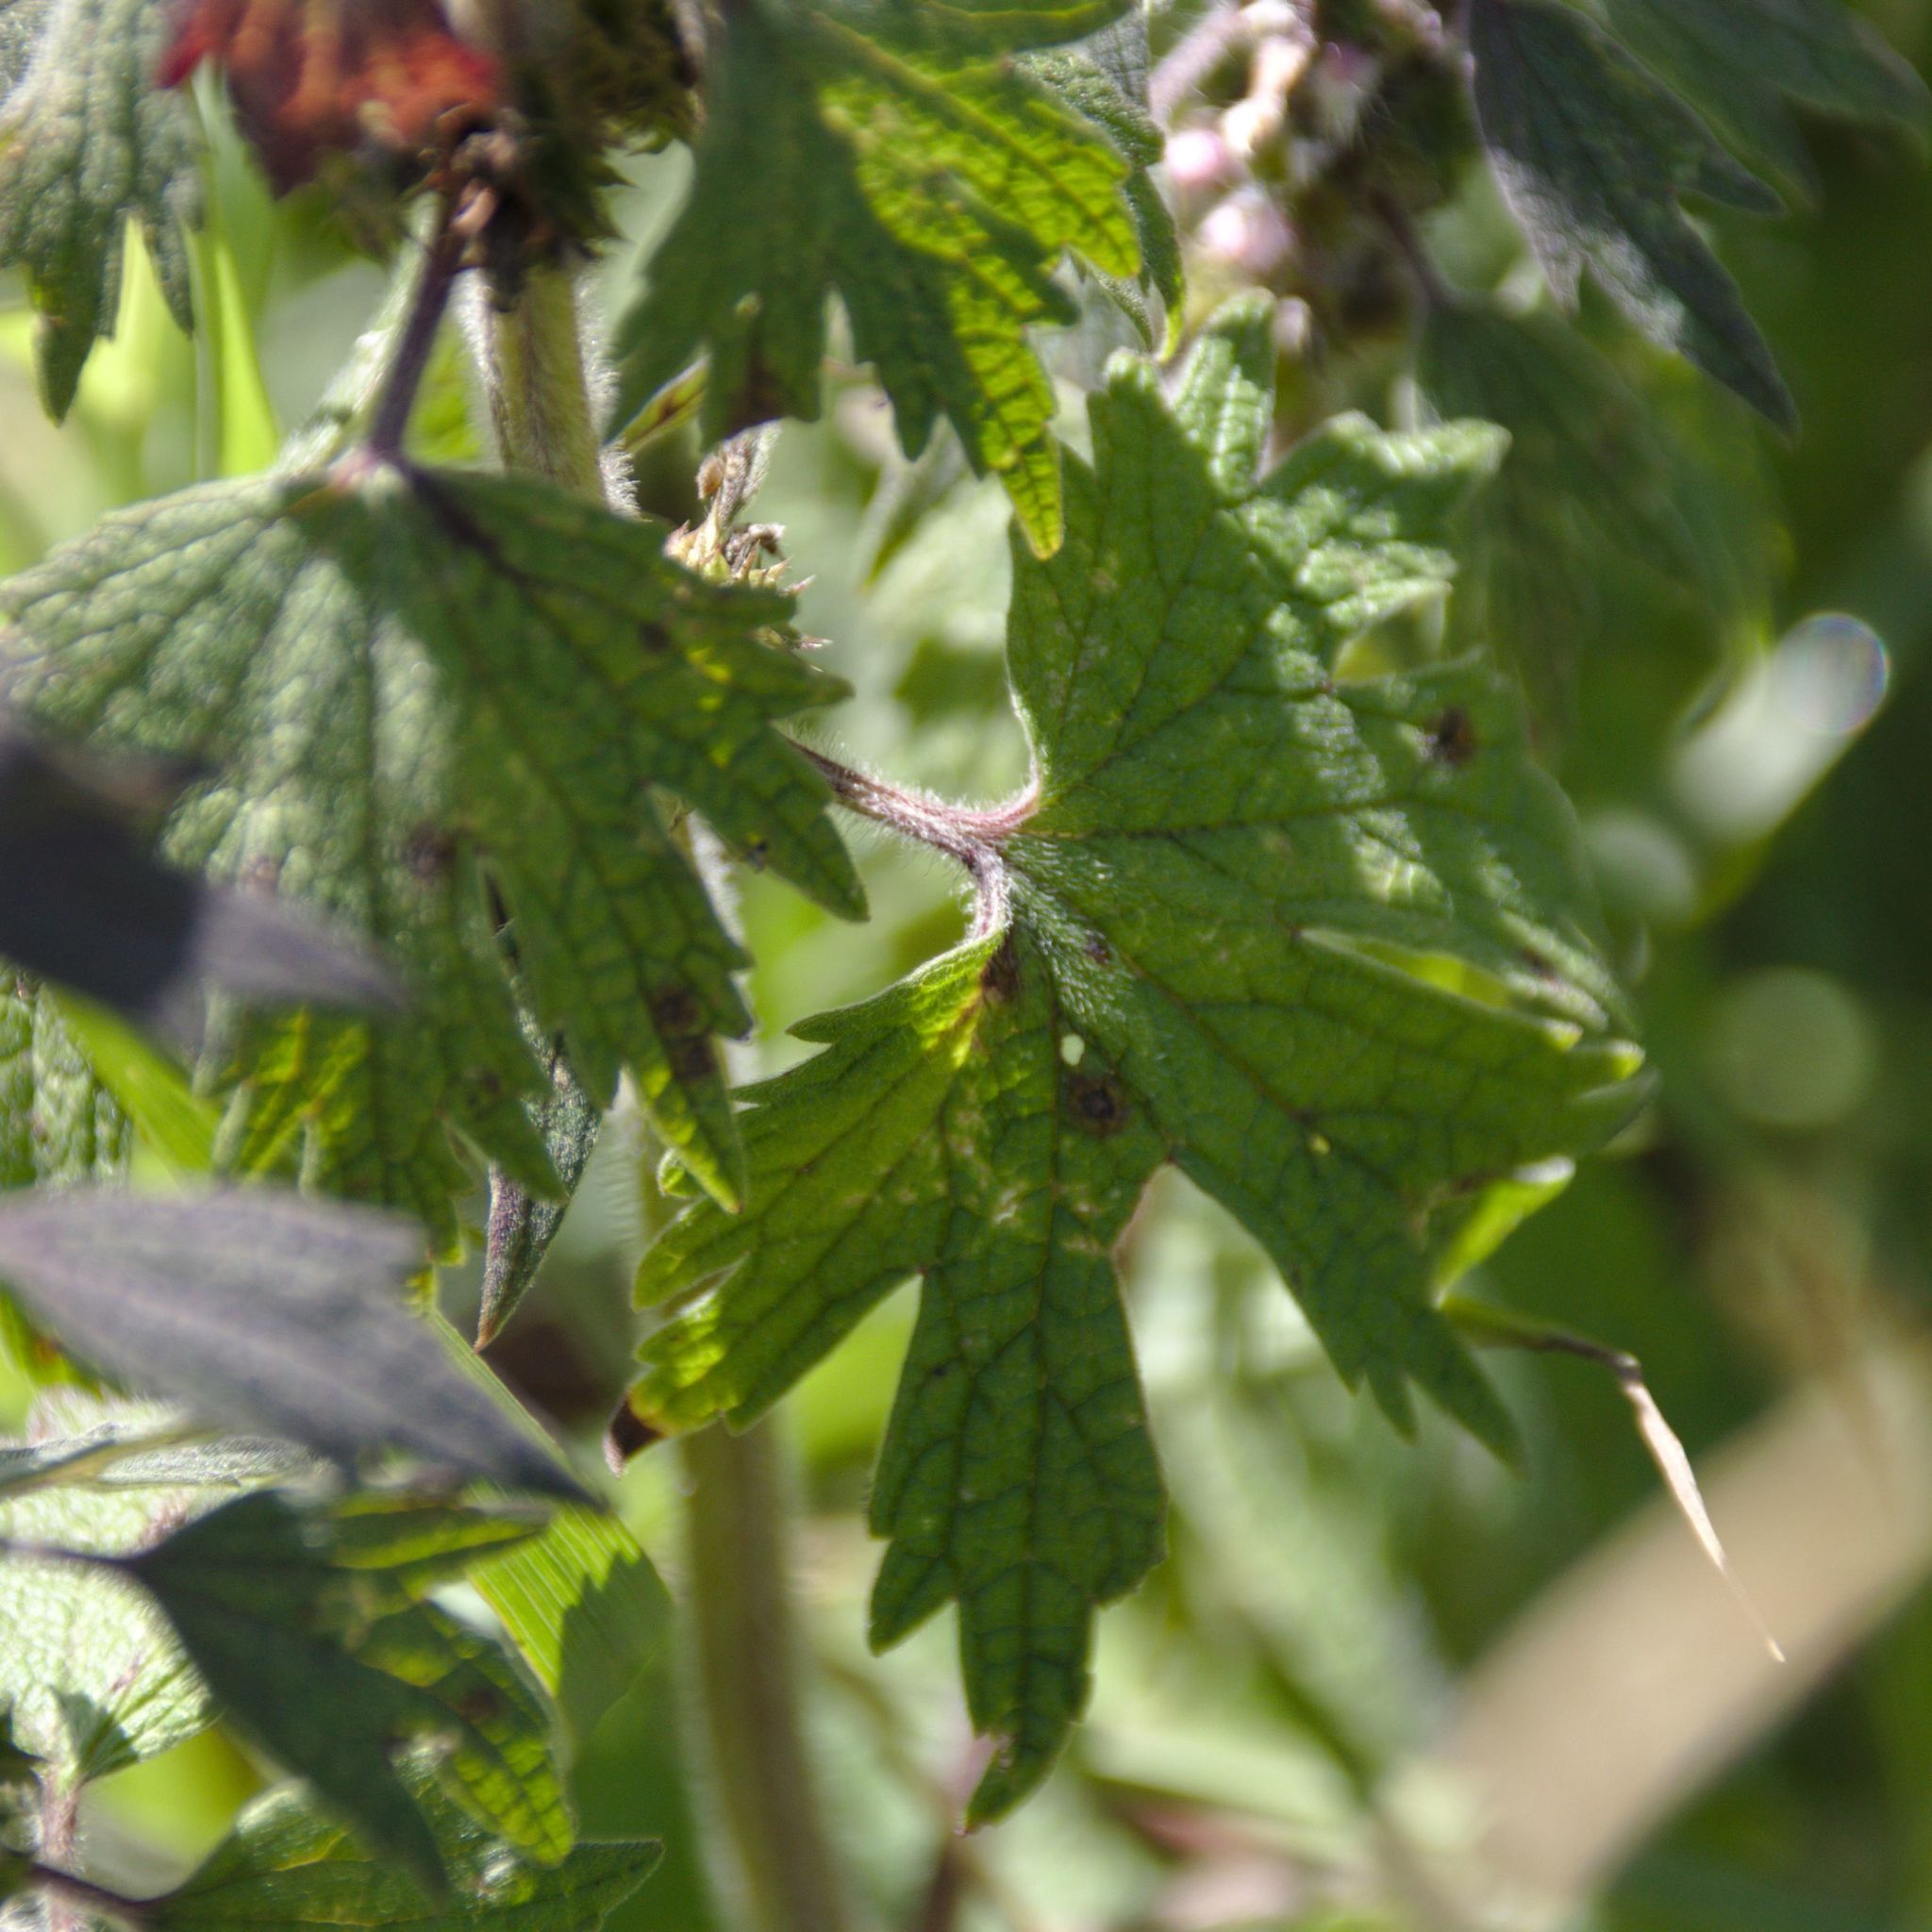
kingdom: Plantae
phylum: Tracheophyta
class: Magnoliopsida
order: Lamiales
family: Lamiaceae
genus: Leonurus
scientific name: Leonurus quinquelobatus
